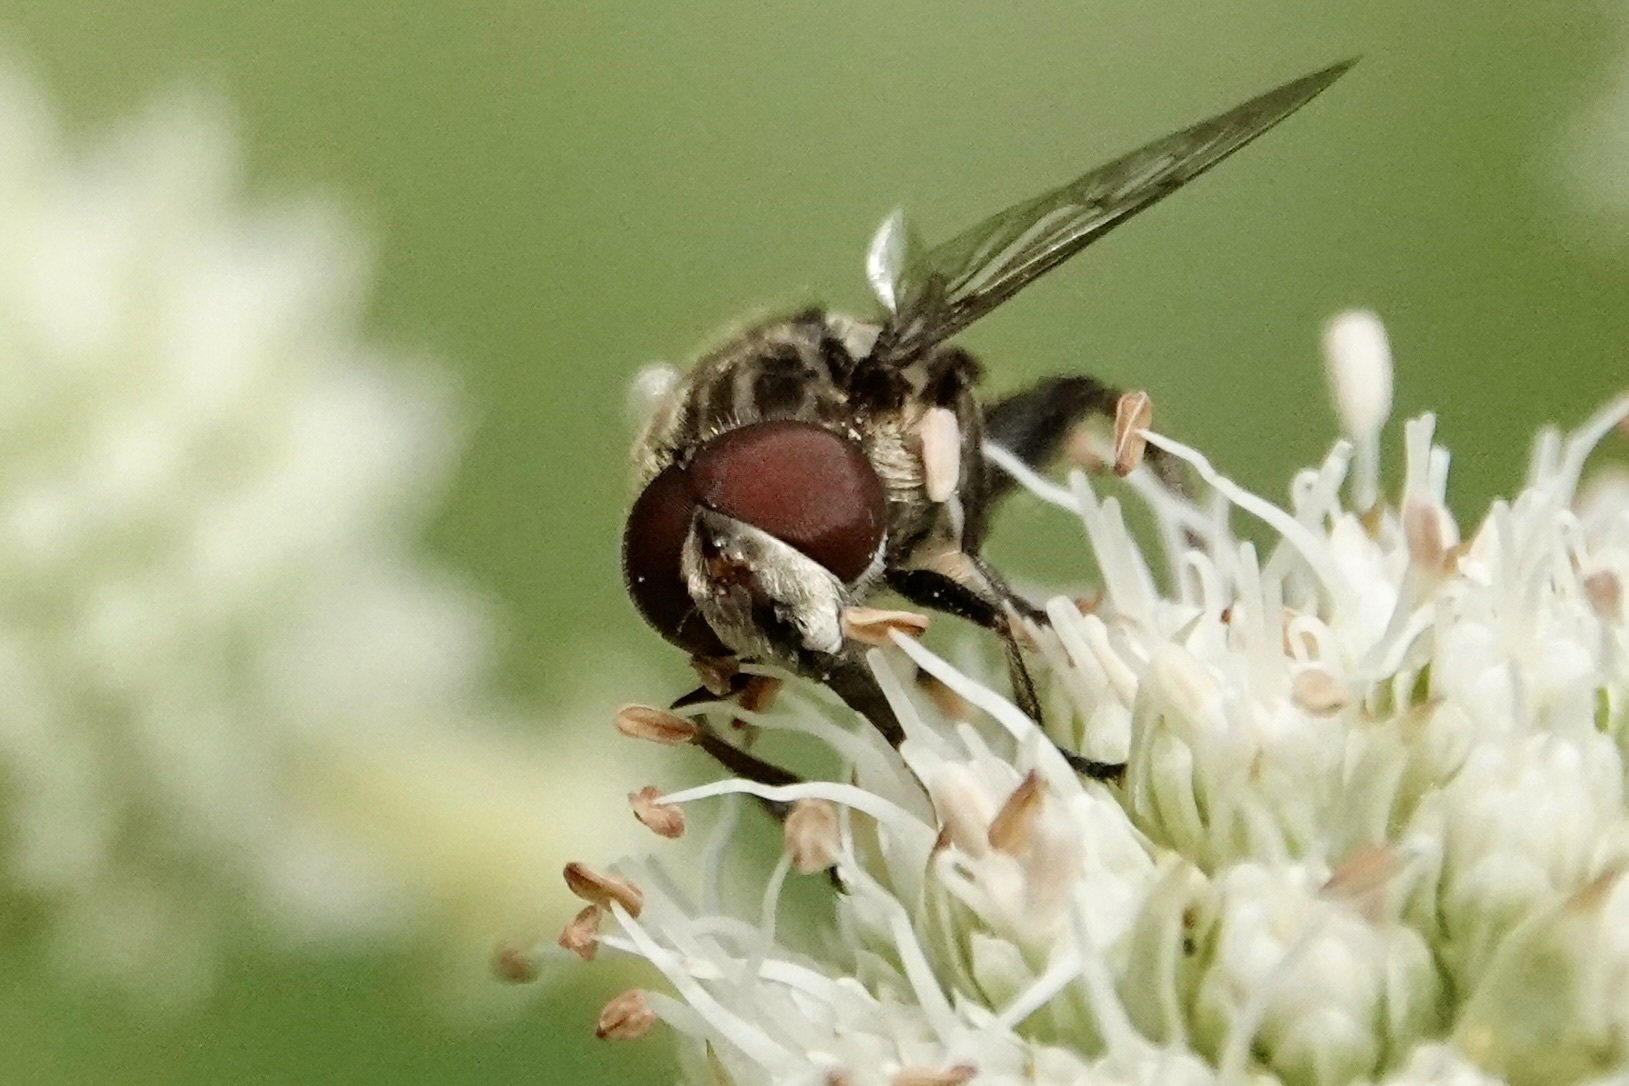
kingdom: Animalia
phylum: Arthropoda
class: Insecta
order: Diptera
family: Syrphidae
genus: Palpada
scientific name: Palpada furcata
